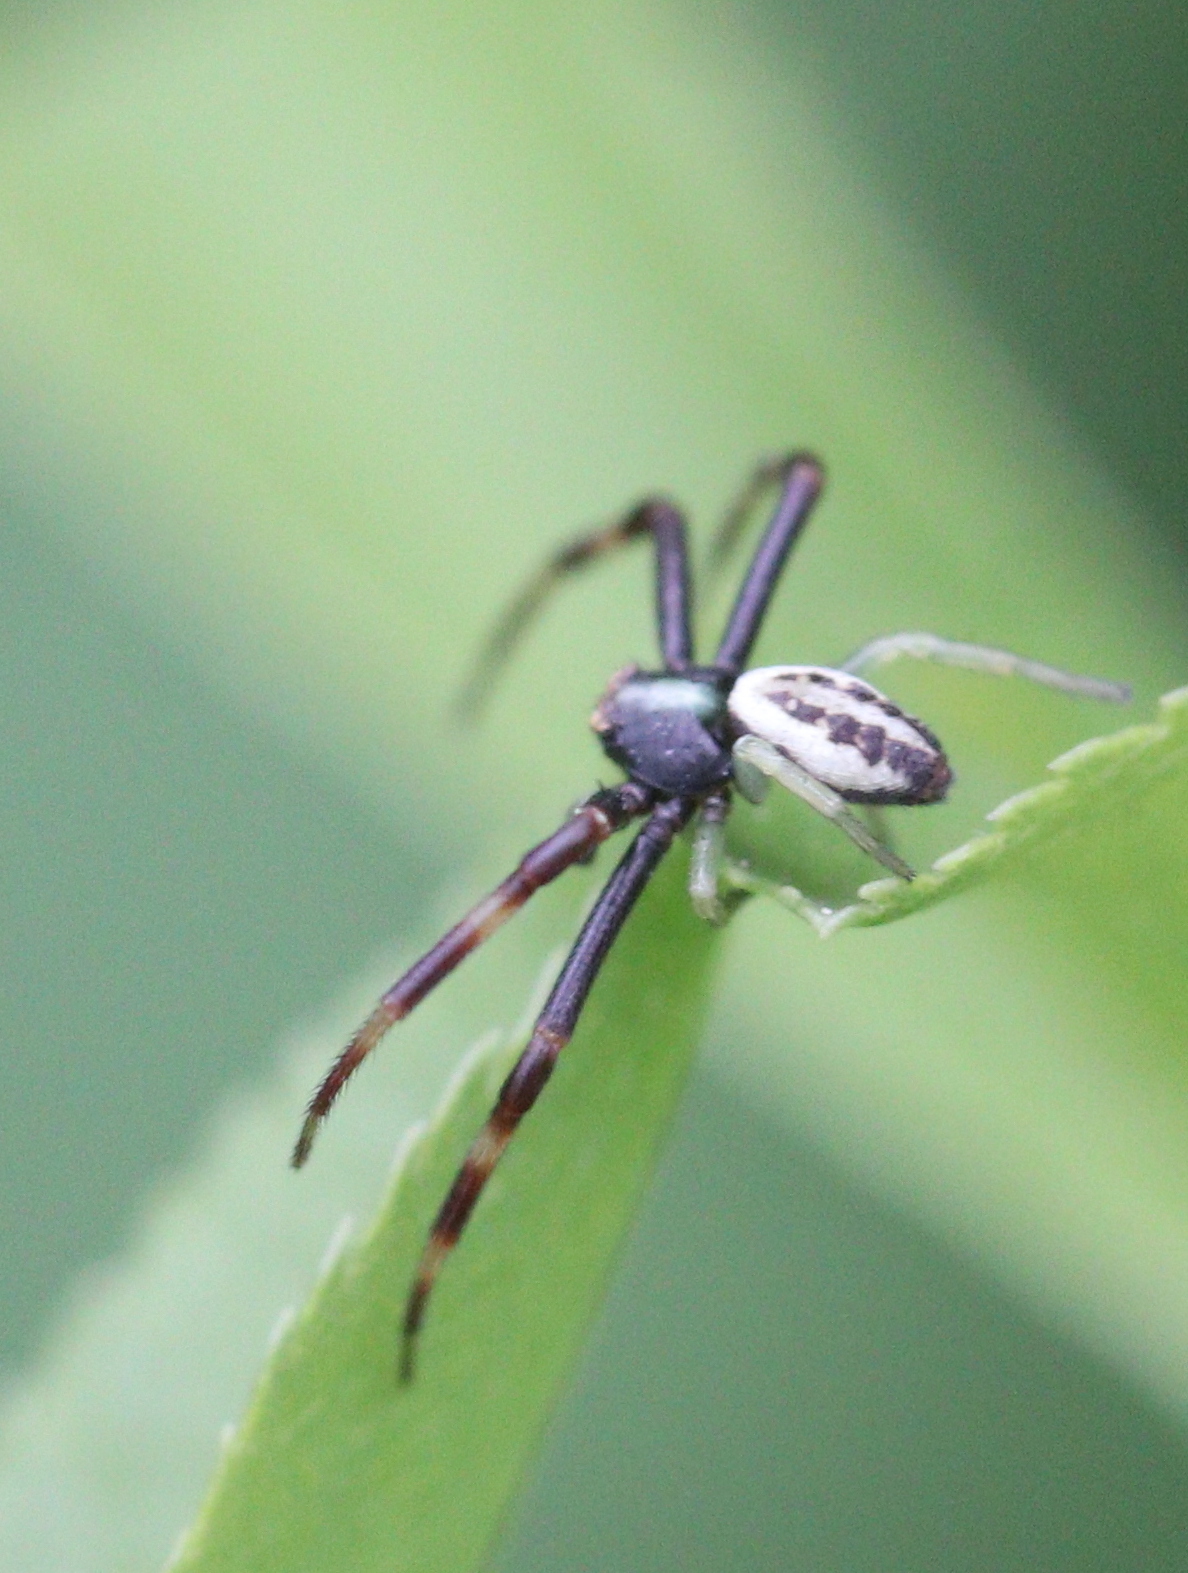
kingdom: Animalia
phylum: Arthropoda
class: Arachnida
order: Araneae
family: Thomisidae
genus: Misumena
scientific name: Misumena vatia
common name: Goldenrod crab spider
